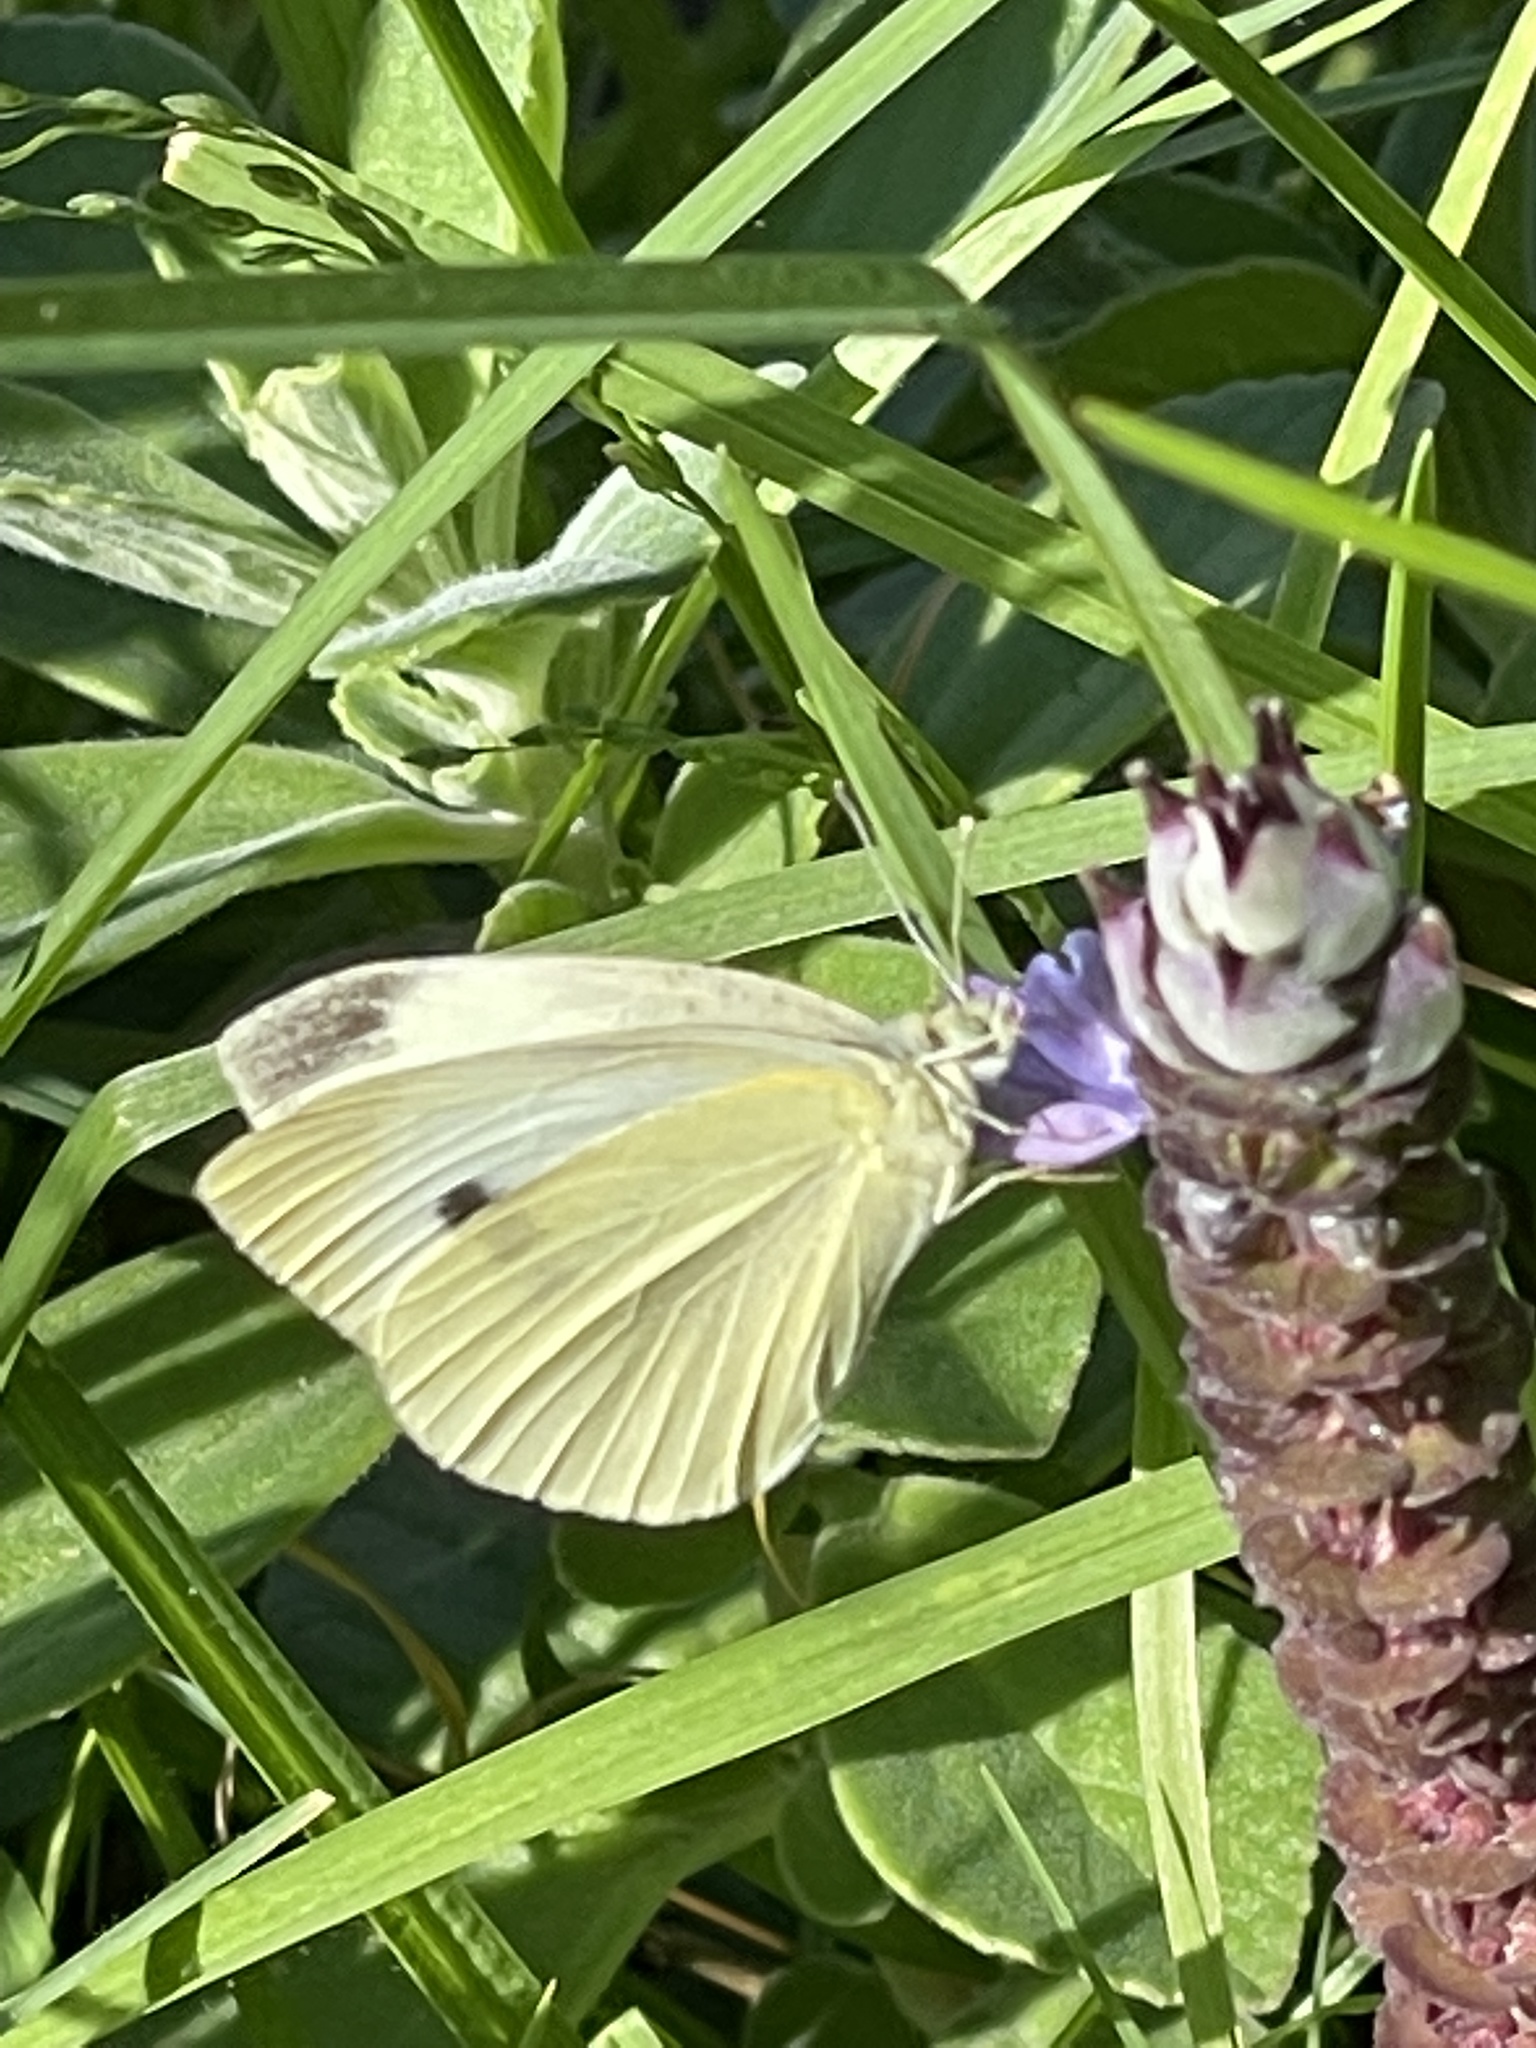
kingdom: Animalia
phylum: Arthropoda
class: Insecta
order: Lepidoptera
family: Pieridae
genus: Pieris
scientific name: Pieris rapae
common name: Small white
